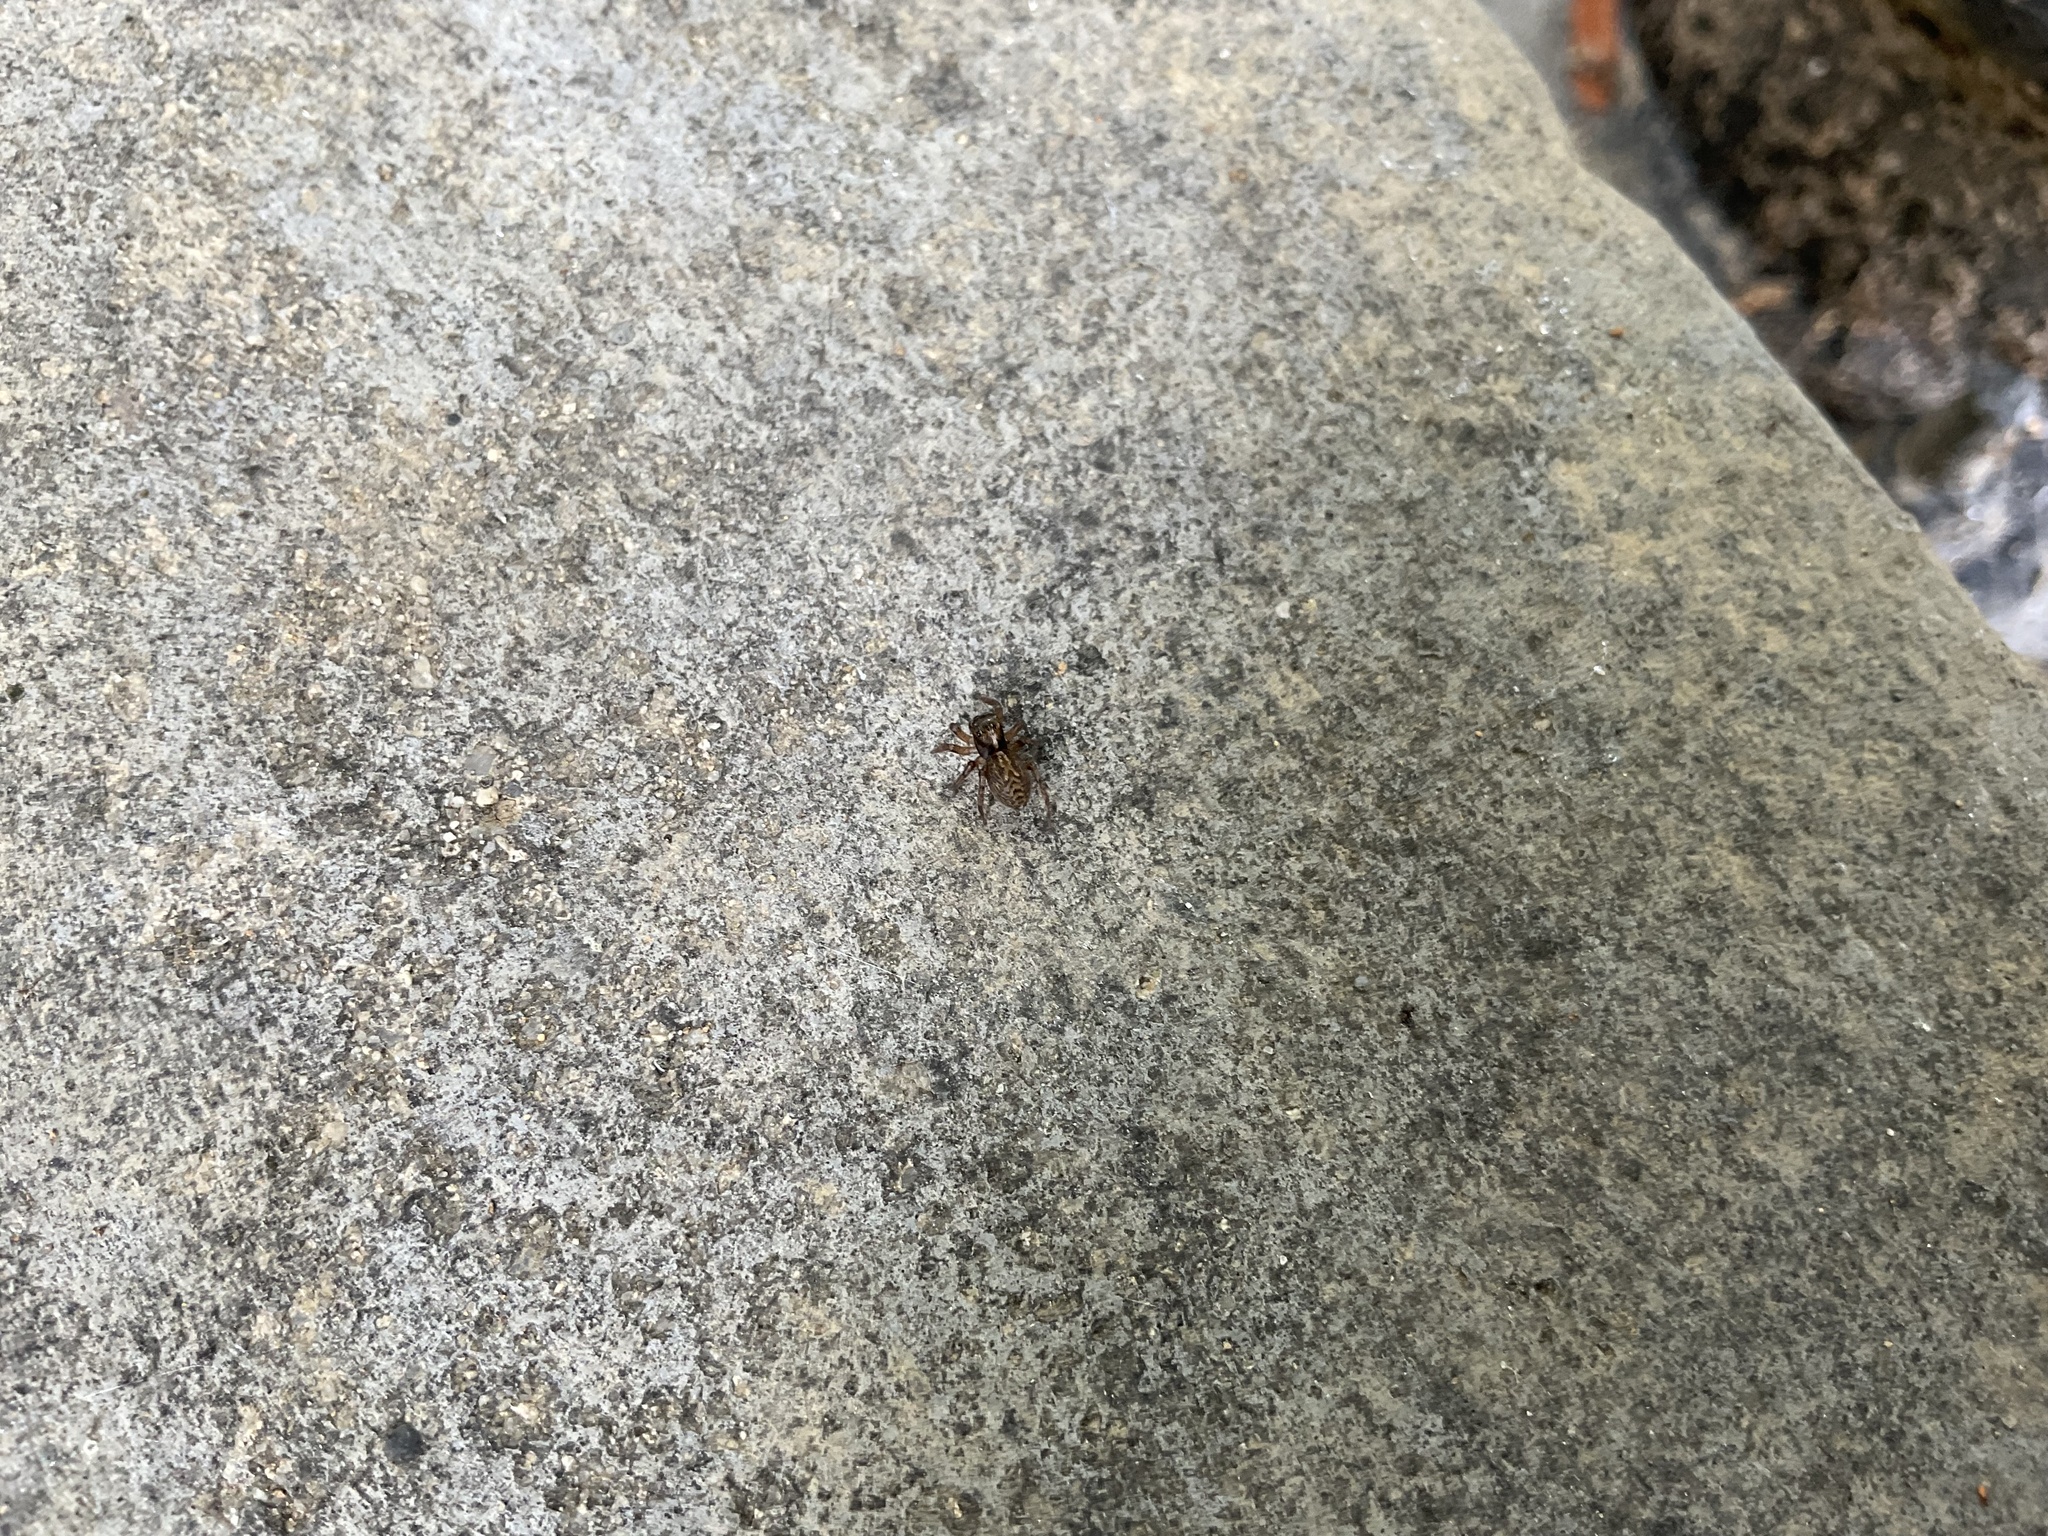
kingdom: Animalia
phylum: Arthropoda
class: Arachnida
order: Araneae
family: Salticidae
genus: Saitis
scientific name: Saitis tauricus
